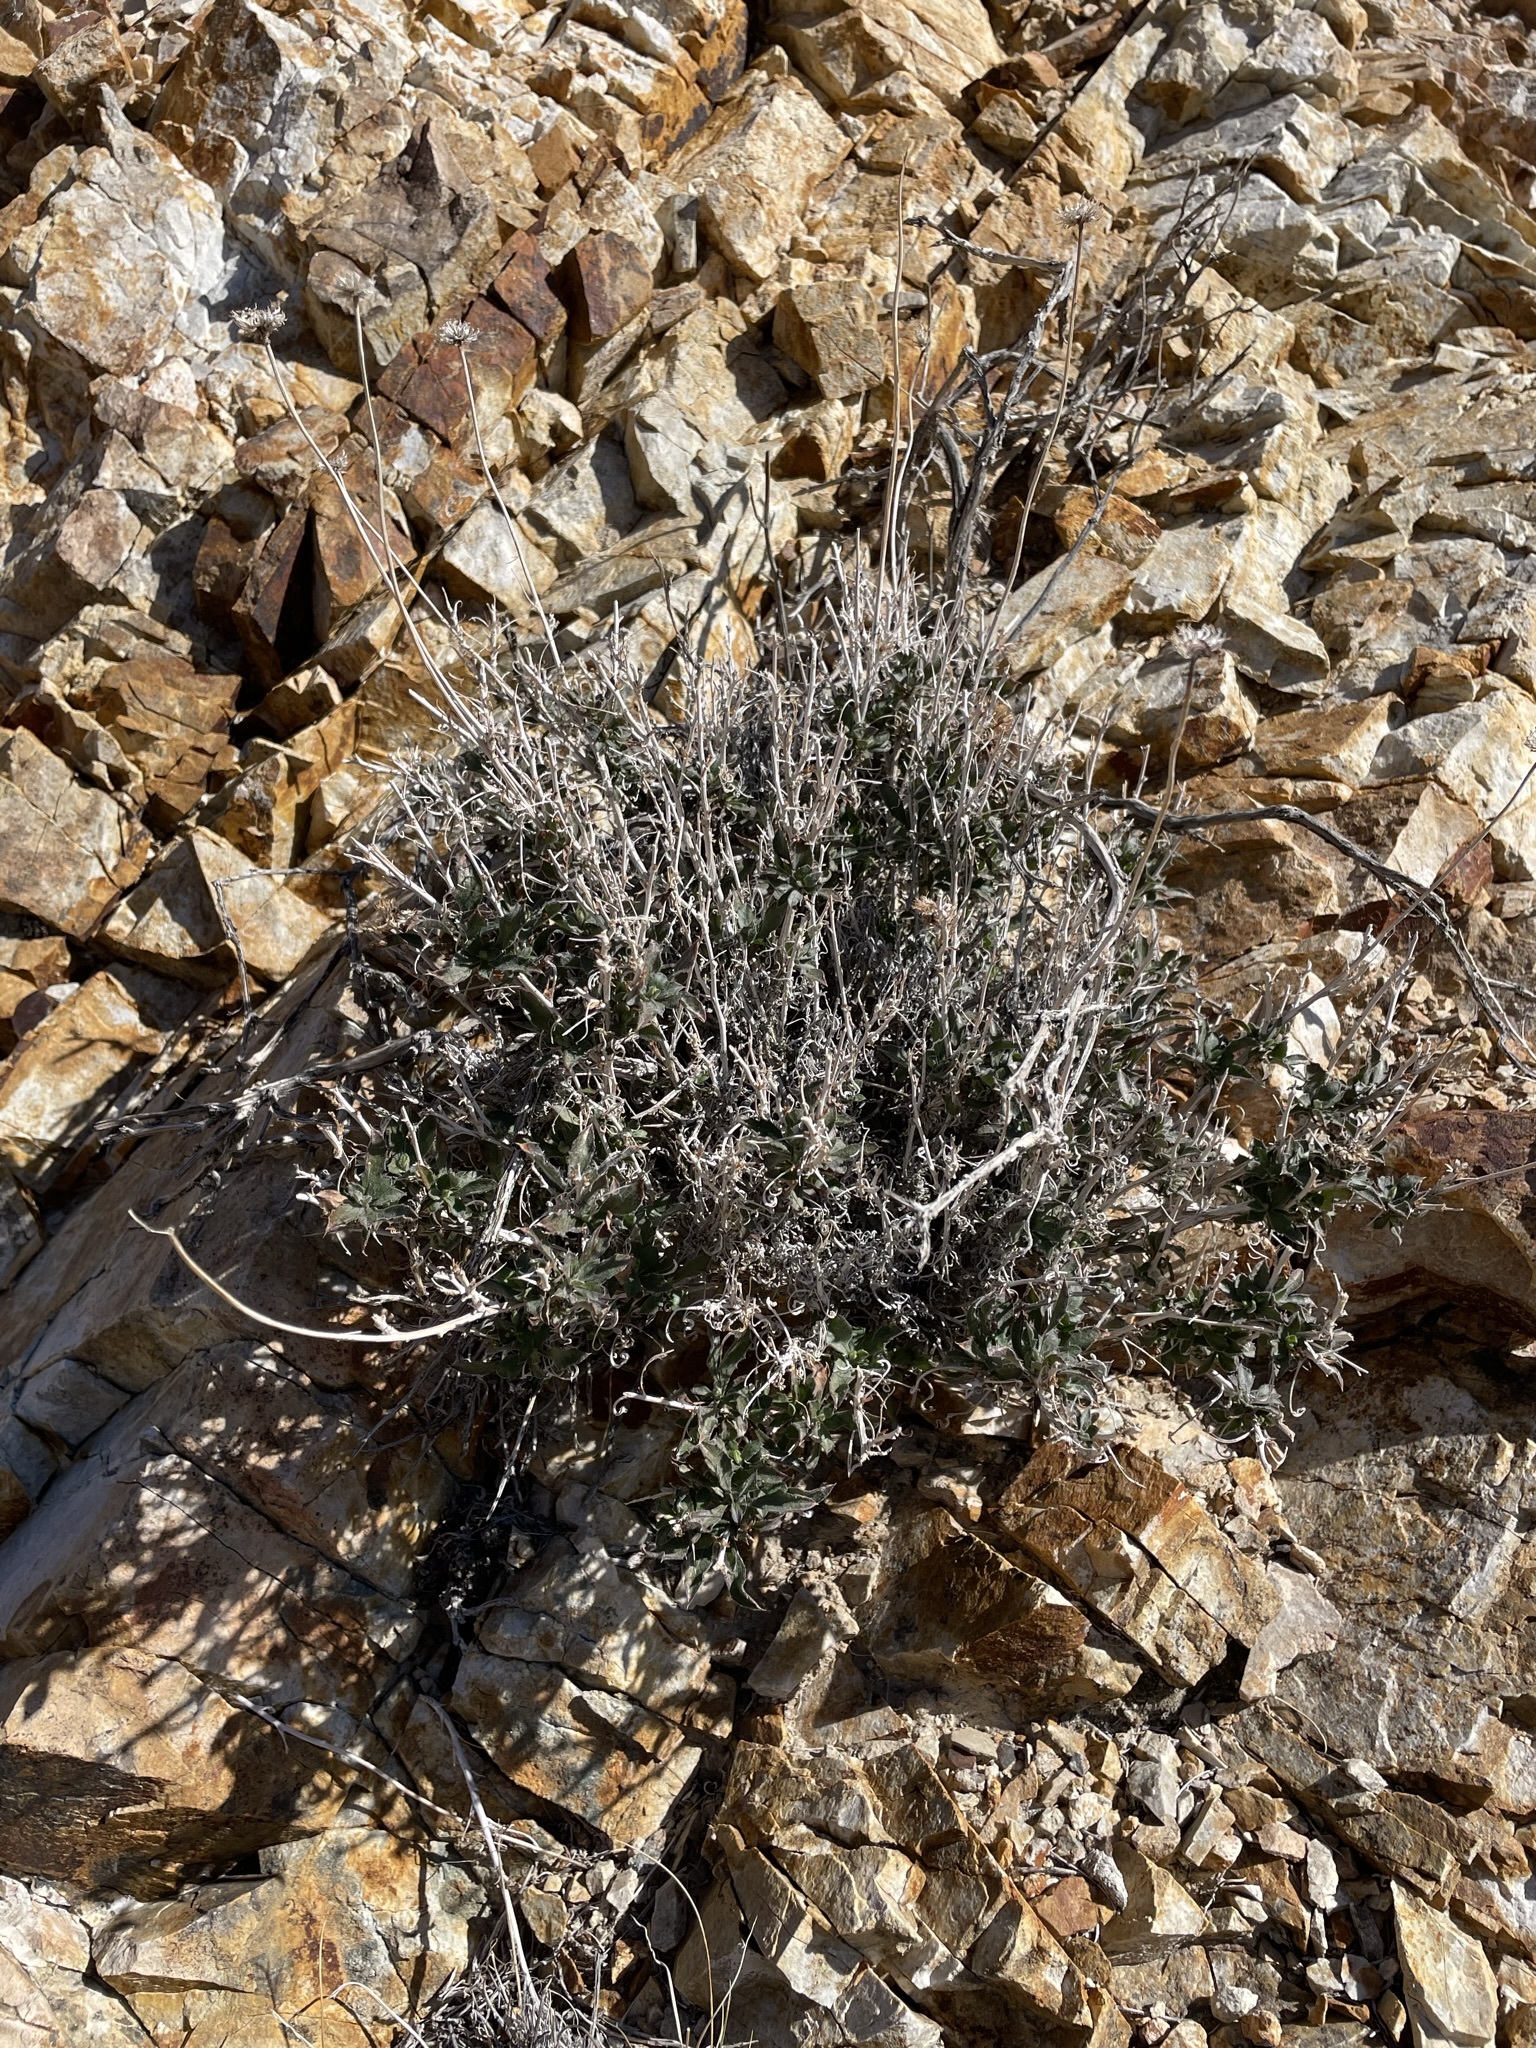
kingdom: Plantae
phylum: Tracheophyta
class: Magnoliopsida
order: Asterales
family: Asteraceae
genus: Xylorhiza
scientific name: Xylorhiza tortifolia
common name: Hurt-leaf woody-aster
